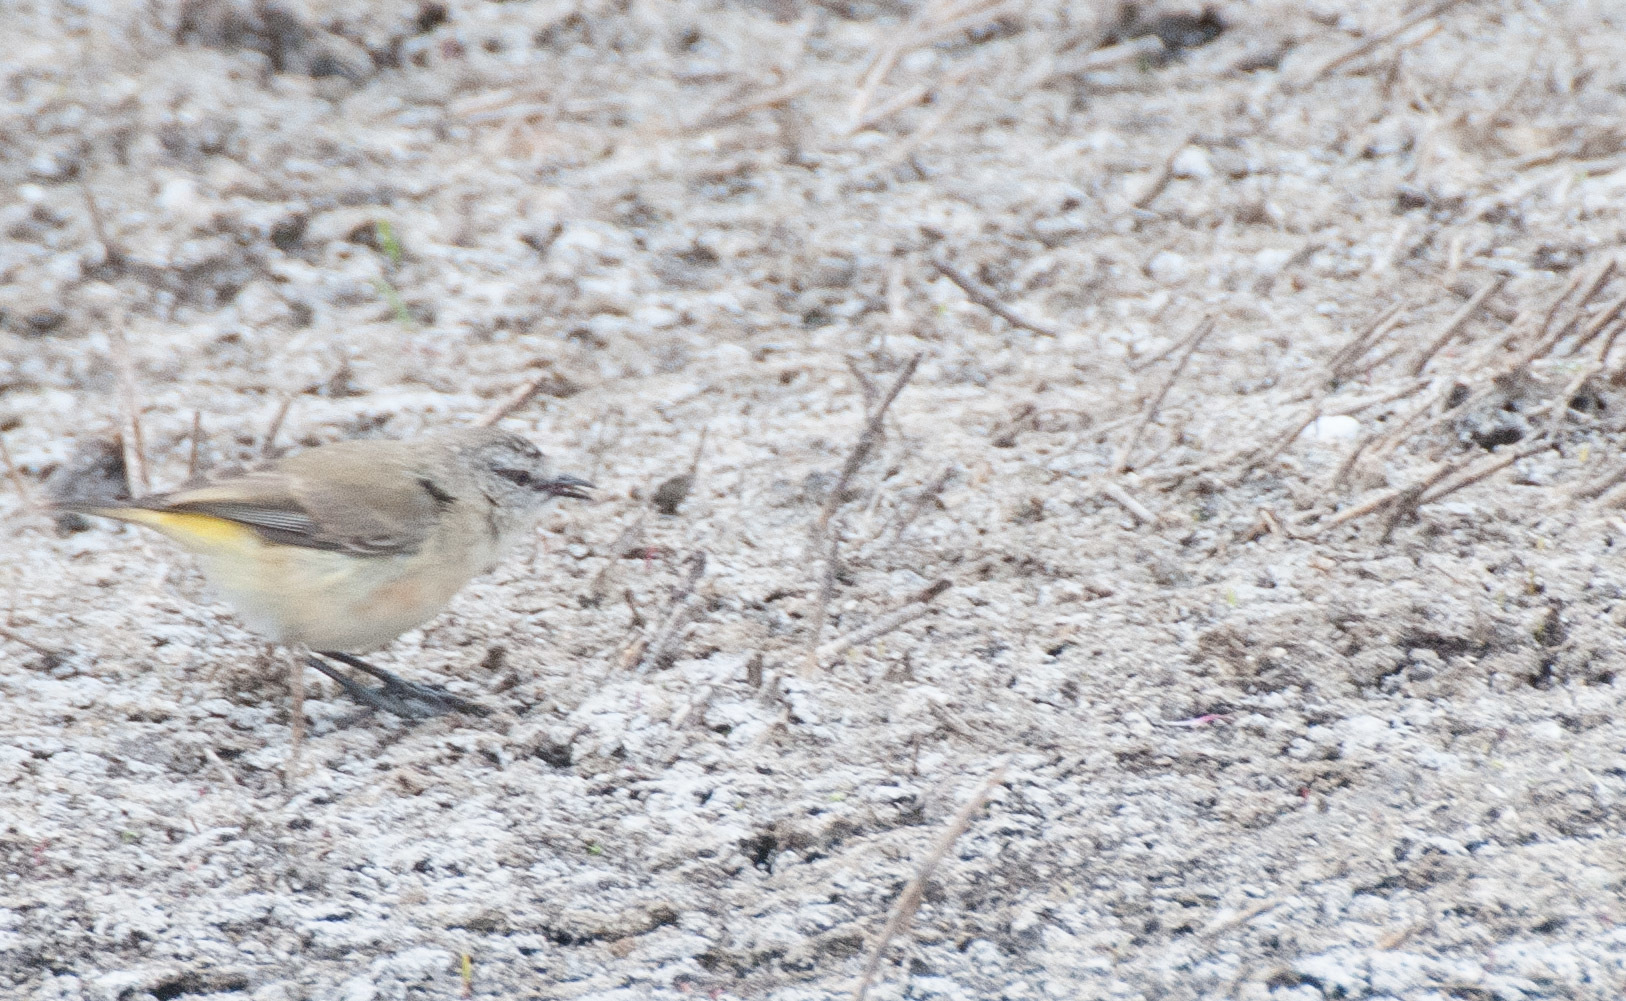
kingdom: Animalia
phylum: Chordata
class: Aves
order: Passeriformes
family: Acanthizidae
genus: Acanthiza
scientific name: Acanthiza chrysorrhoa
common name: Yellow-rumped thornbill
